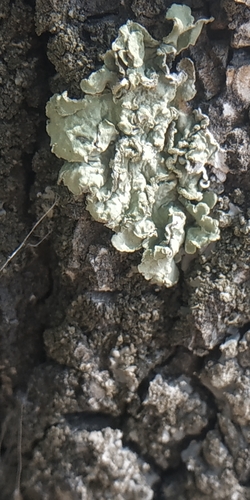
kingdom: Fungi
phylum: Ascomycota
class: Lecanoromycetes
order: Lecanorales
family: Parmeliaceae
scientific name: Parmeliaceae
